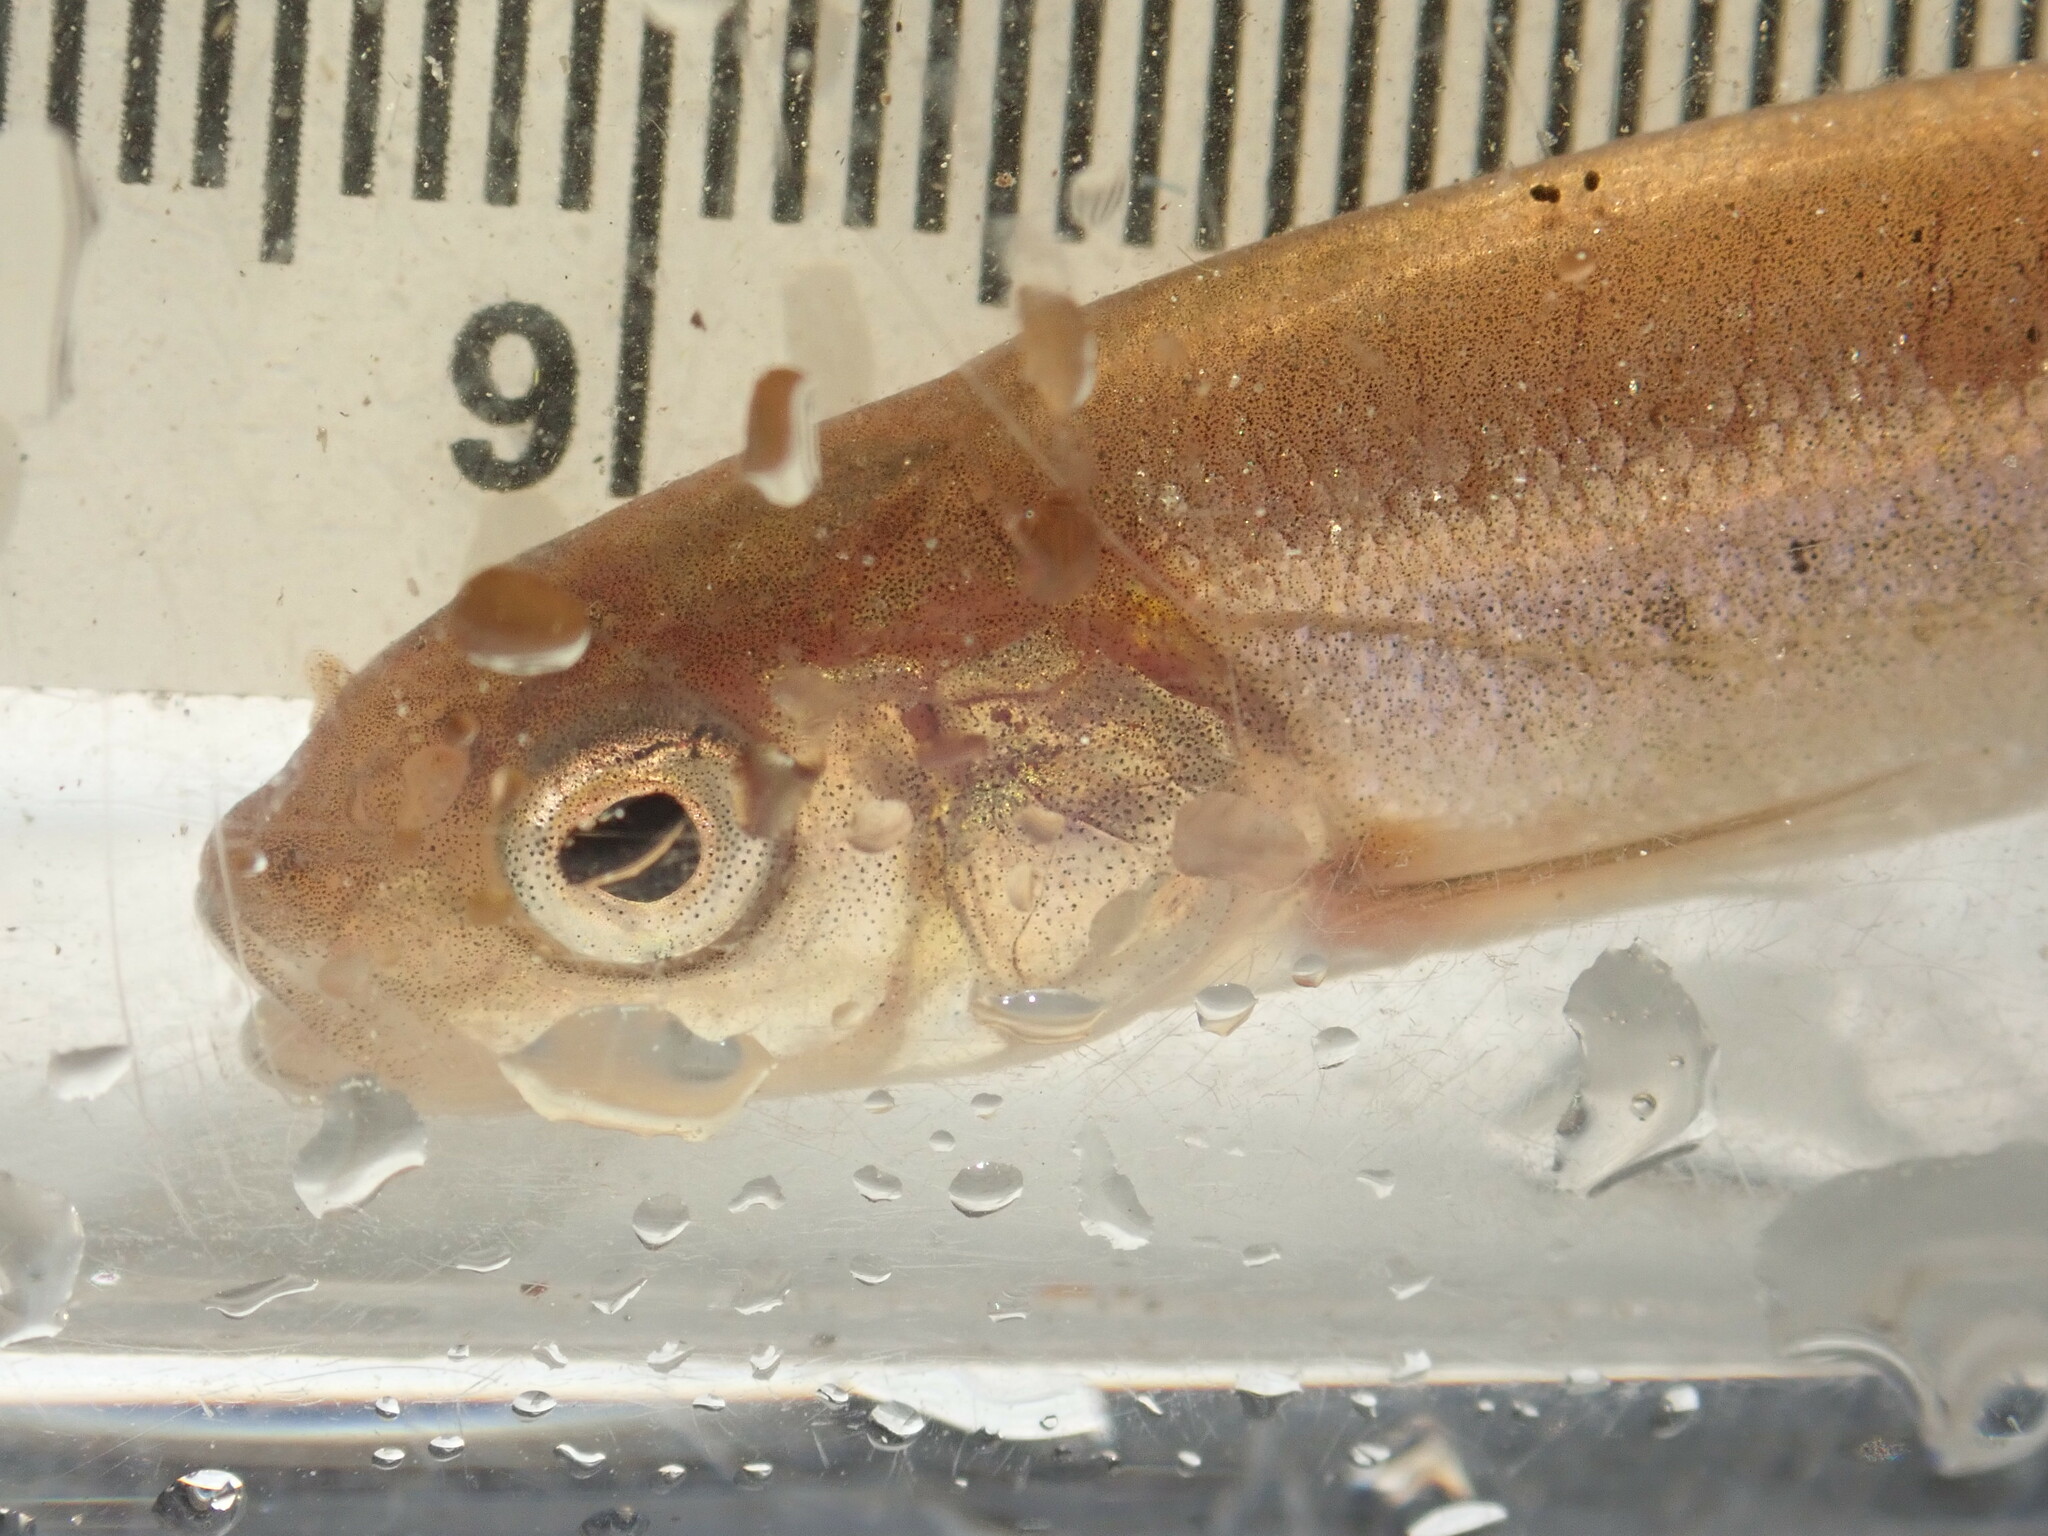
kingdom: Animalia
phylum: Chordata
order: Cypriniformes
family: Cyprinidae
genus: Margariscus
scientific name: Margariscus nachtriebi
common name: Northern pearl dace
